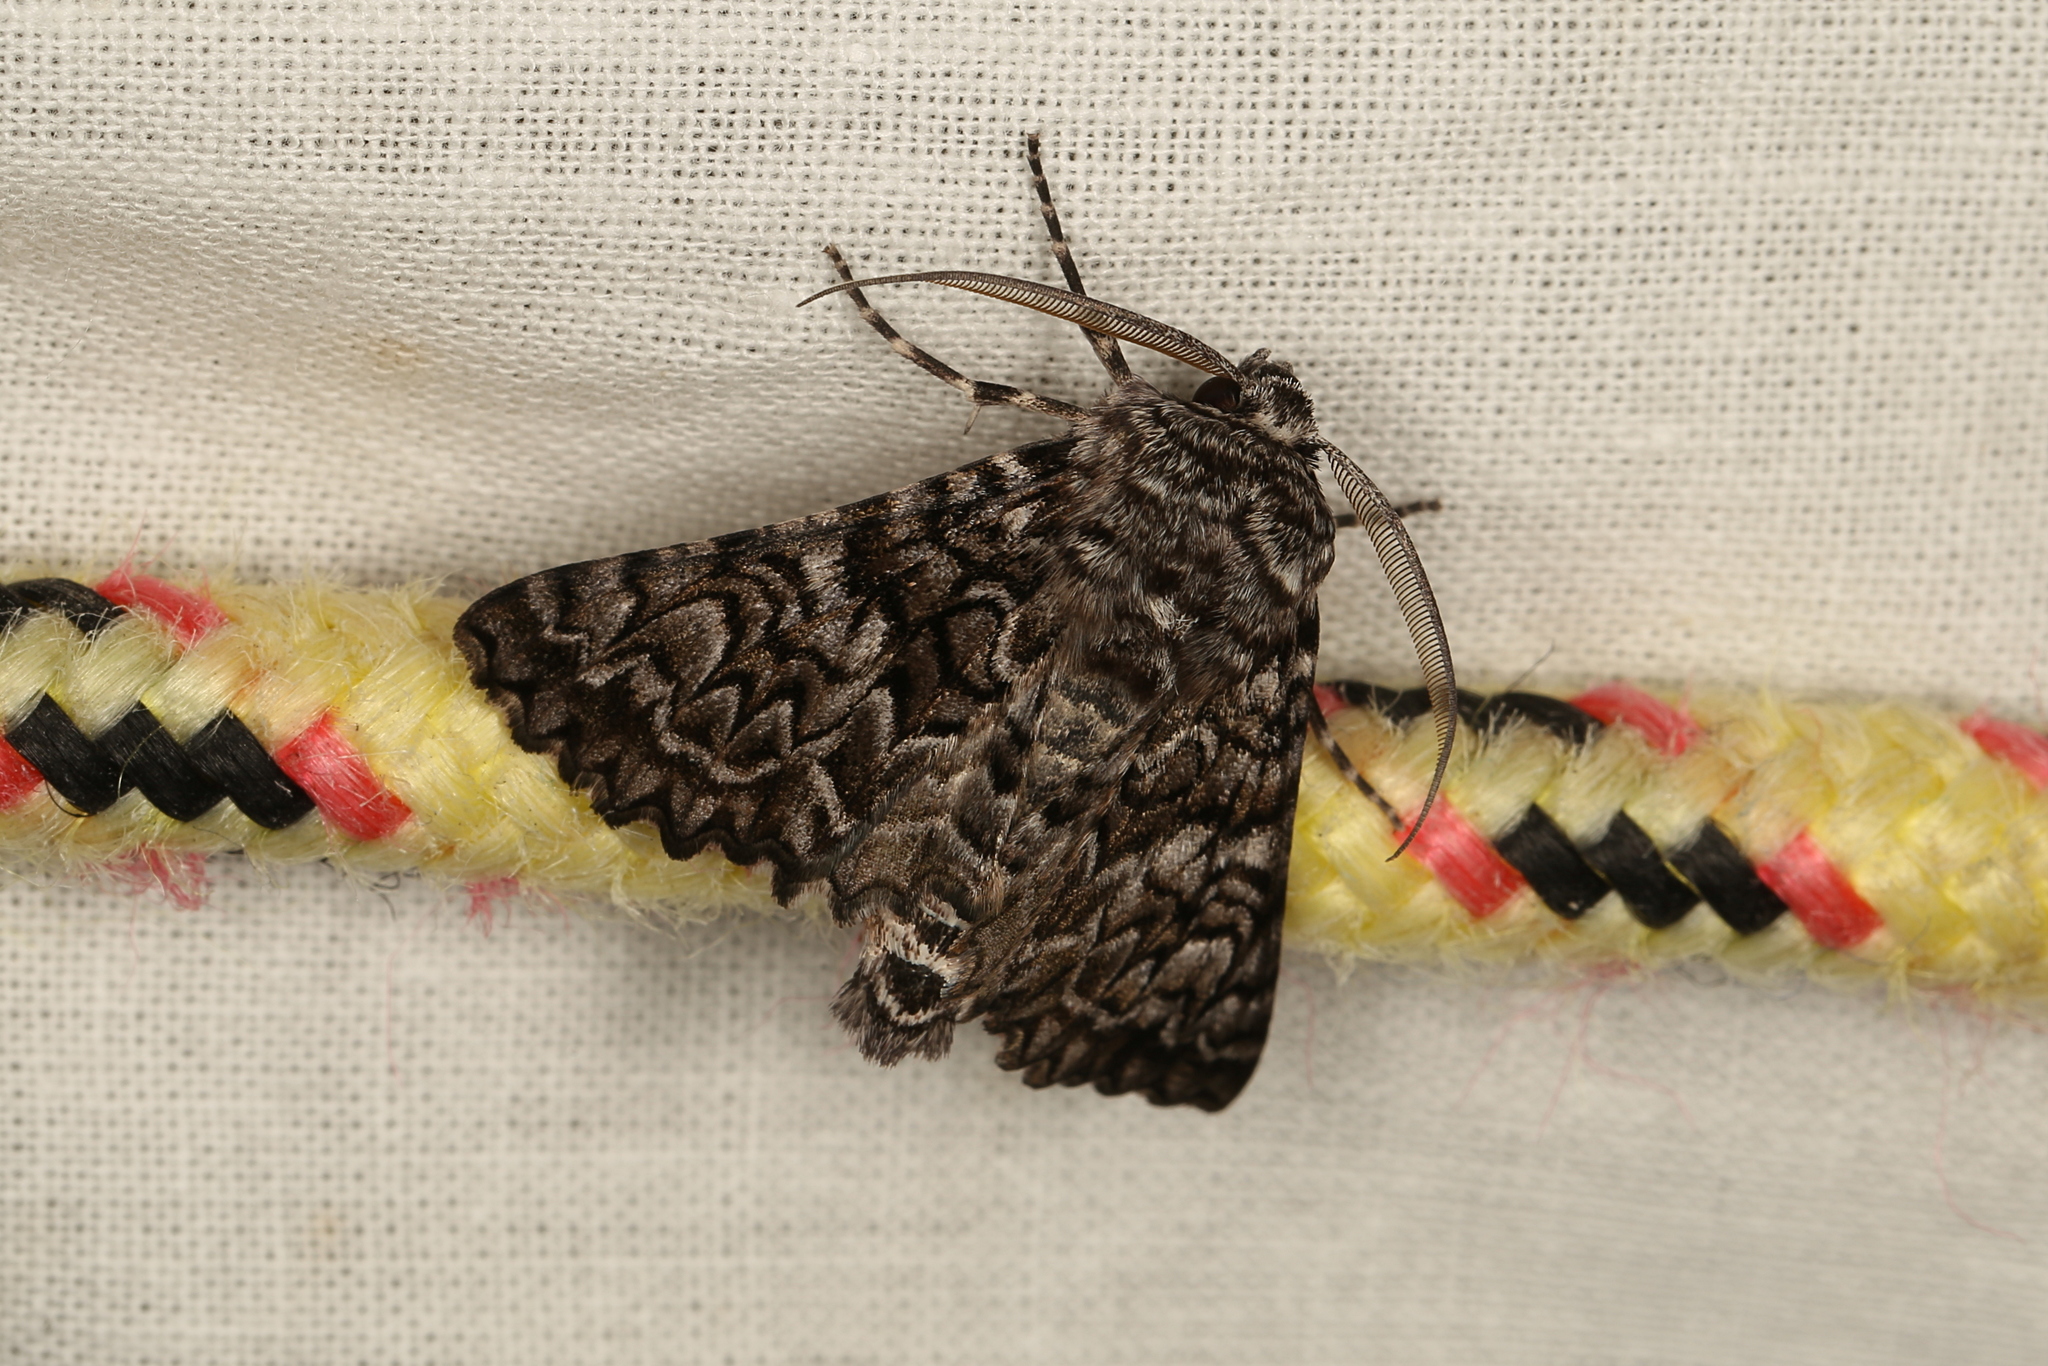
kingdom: Animalia
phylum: Arthropoda
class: Insecta
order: Lepidoptera
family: Geometridae
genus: Dinophalus
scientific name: Dinophalus serpentaria
